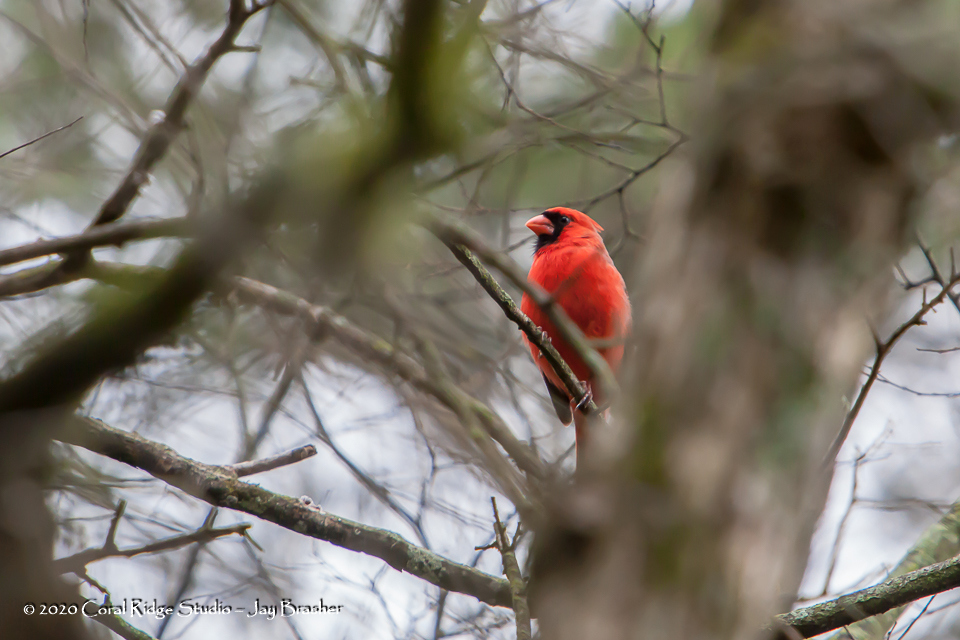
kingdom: Animalia
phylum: Chordata
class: Aves
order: Passeriformes
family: Cardinalidae
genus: Cardinalis
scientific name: Cardinalis cardinalis
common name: Northern cardinal
